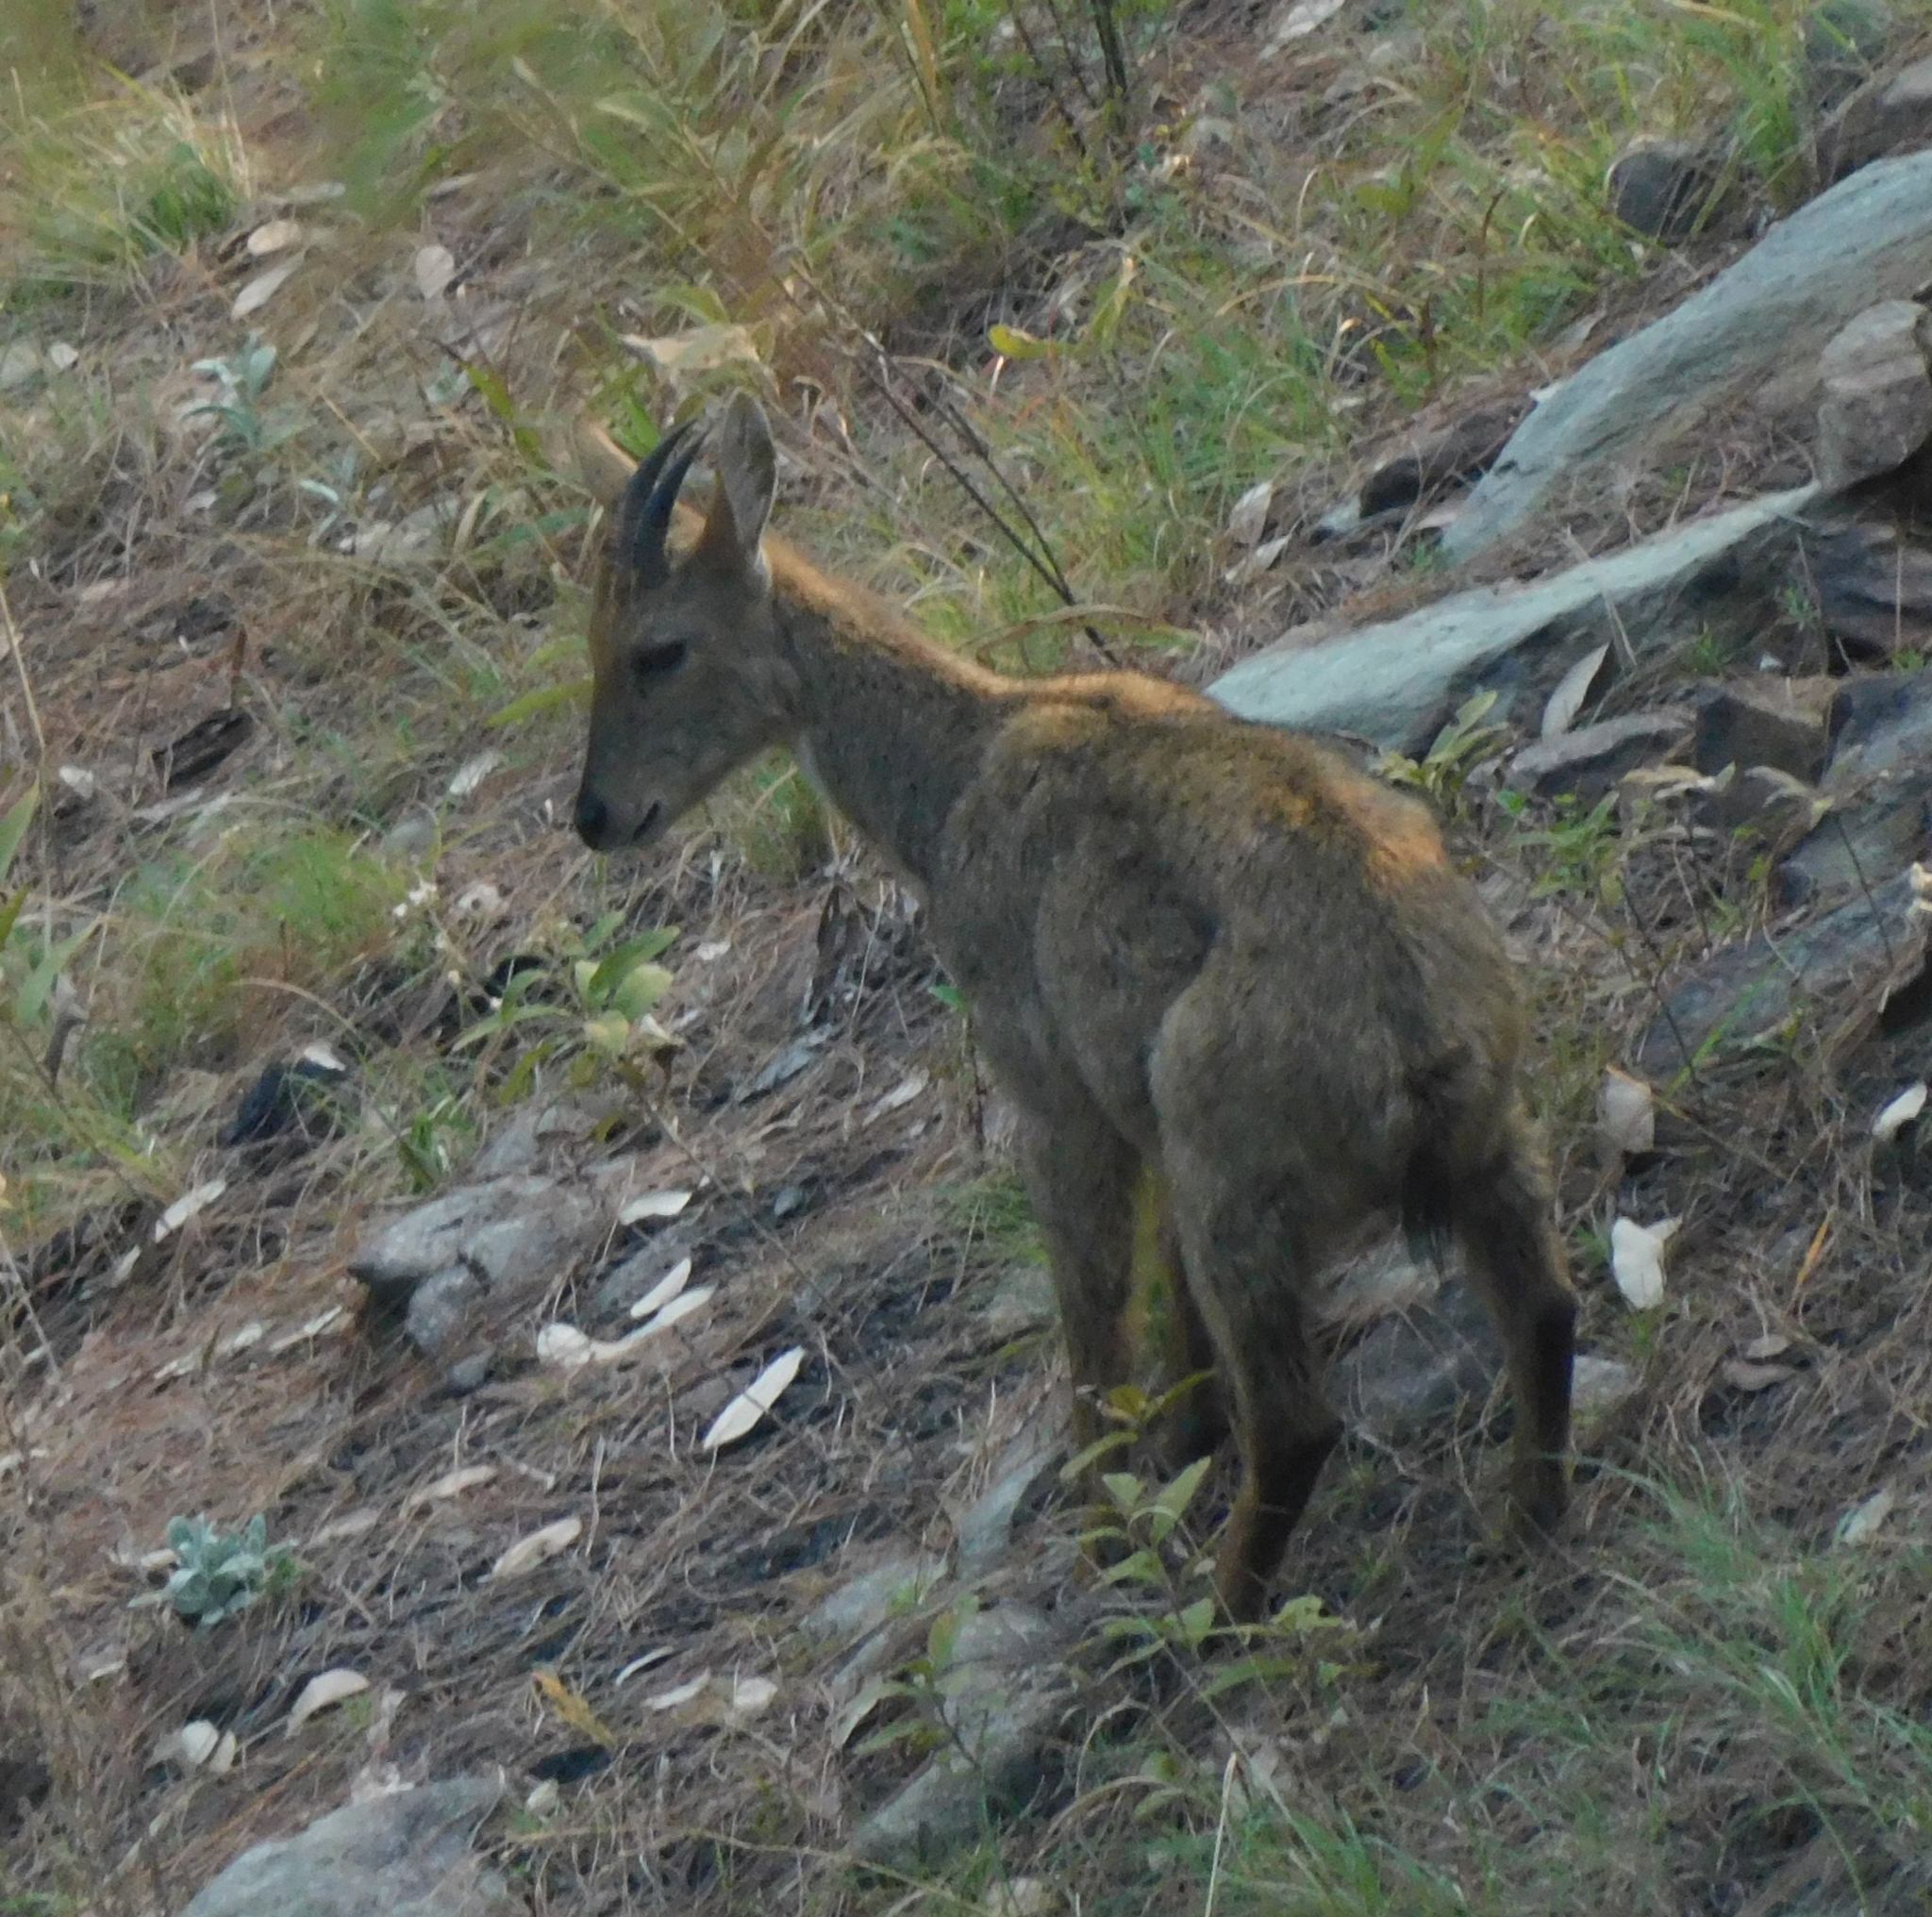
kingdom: Animalia
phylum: Chordata
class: Mammalia
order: Artiodactyla
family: Bovidae
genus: Naemorhedus
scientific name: Naemorhedus goral
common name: Goral
